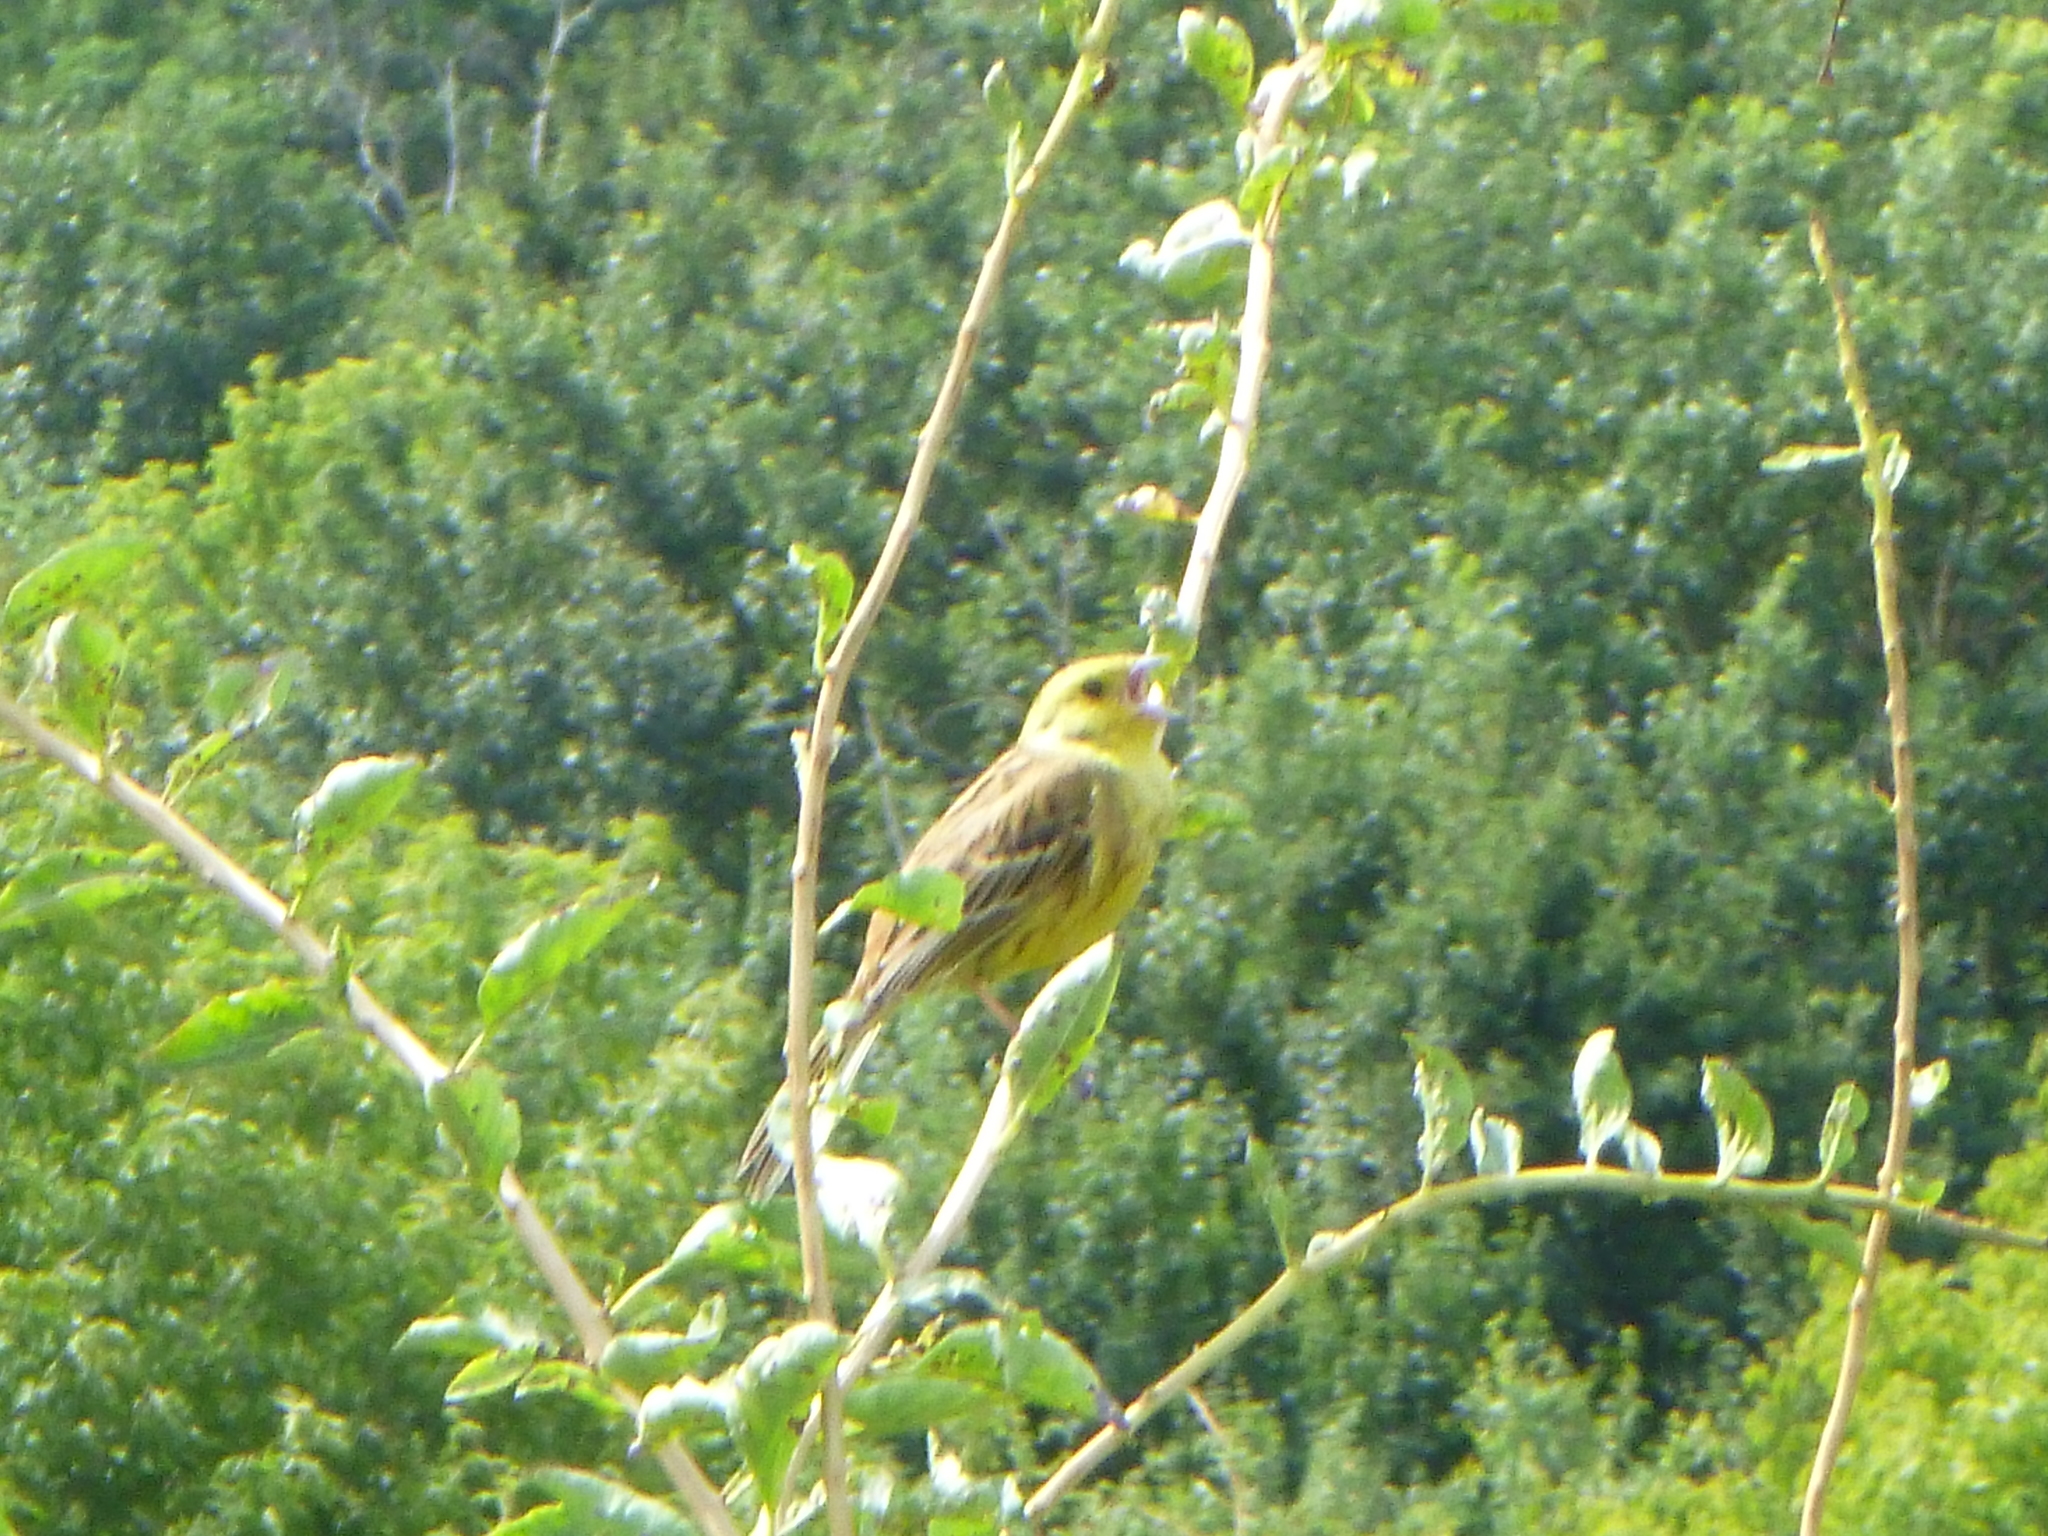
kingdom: Animalia
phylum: Chordata
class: Aves
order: Passeriformes
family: Emberizidae
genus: Emberiza
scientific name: Emberiza citrinella
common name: Yellowhammer
